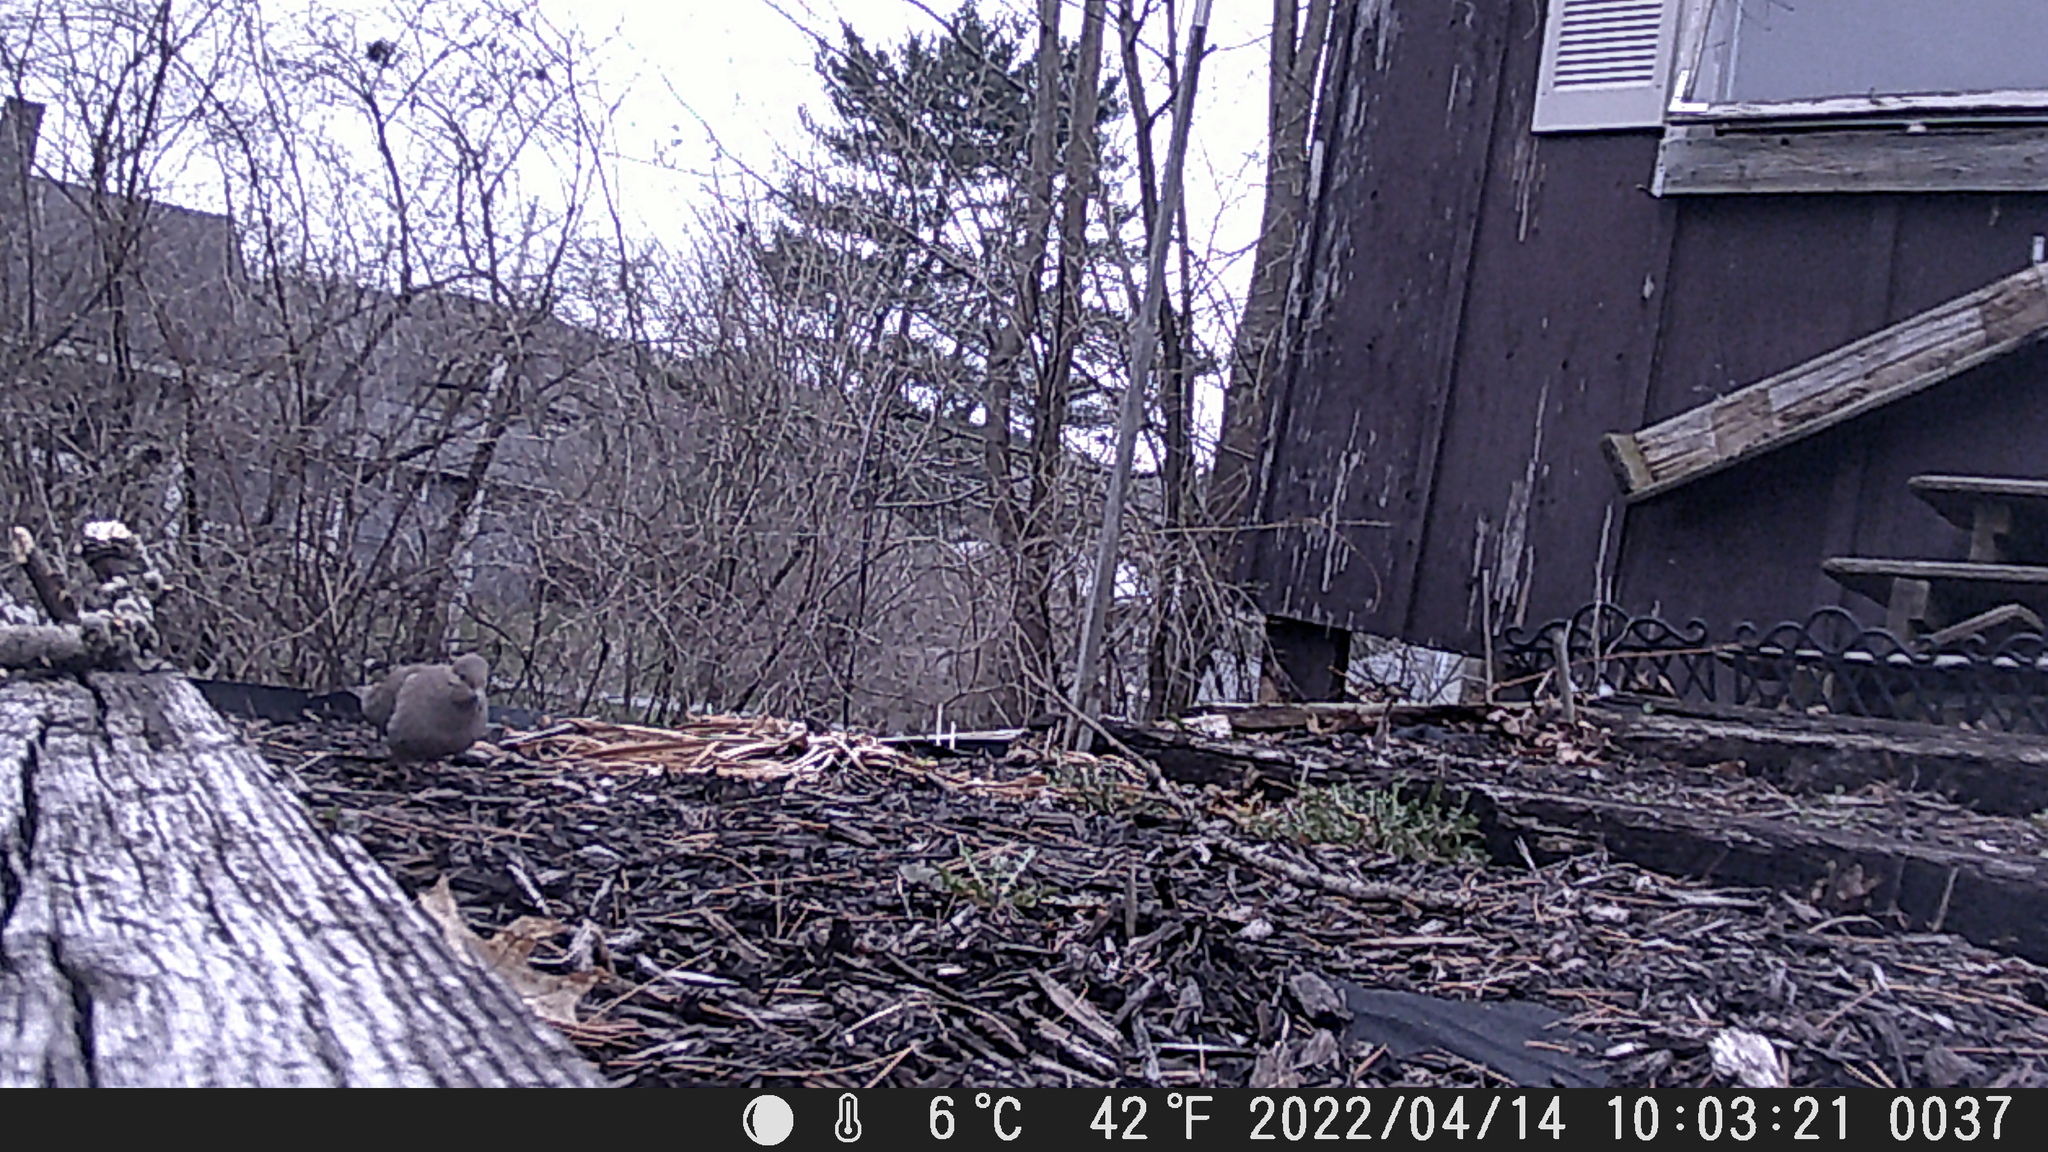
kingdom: Animalia
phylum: Chordata
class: Aves
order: Columbiformes
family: Columbidae
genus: Zenaida
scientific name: Zenaida macroura
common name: Mourning dove
